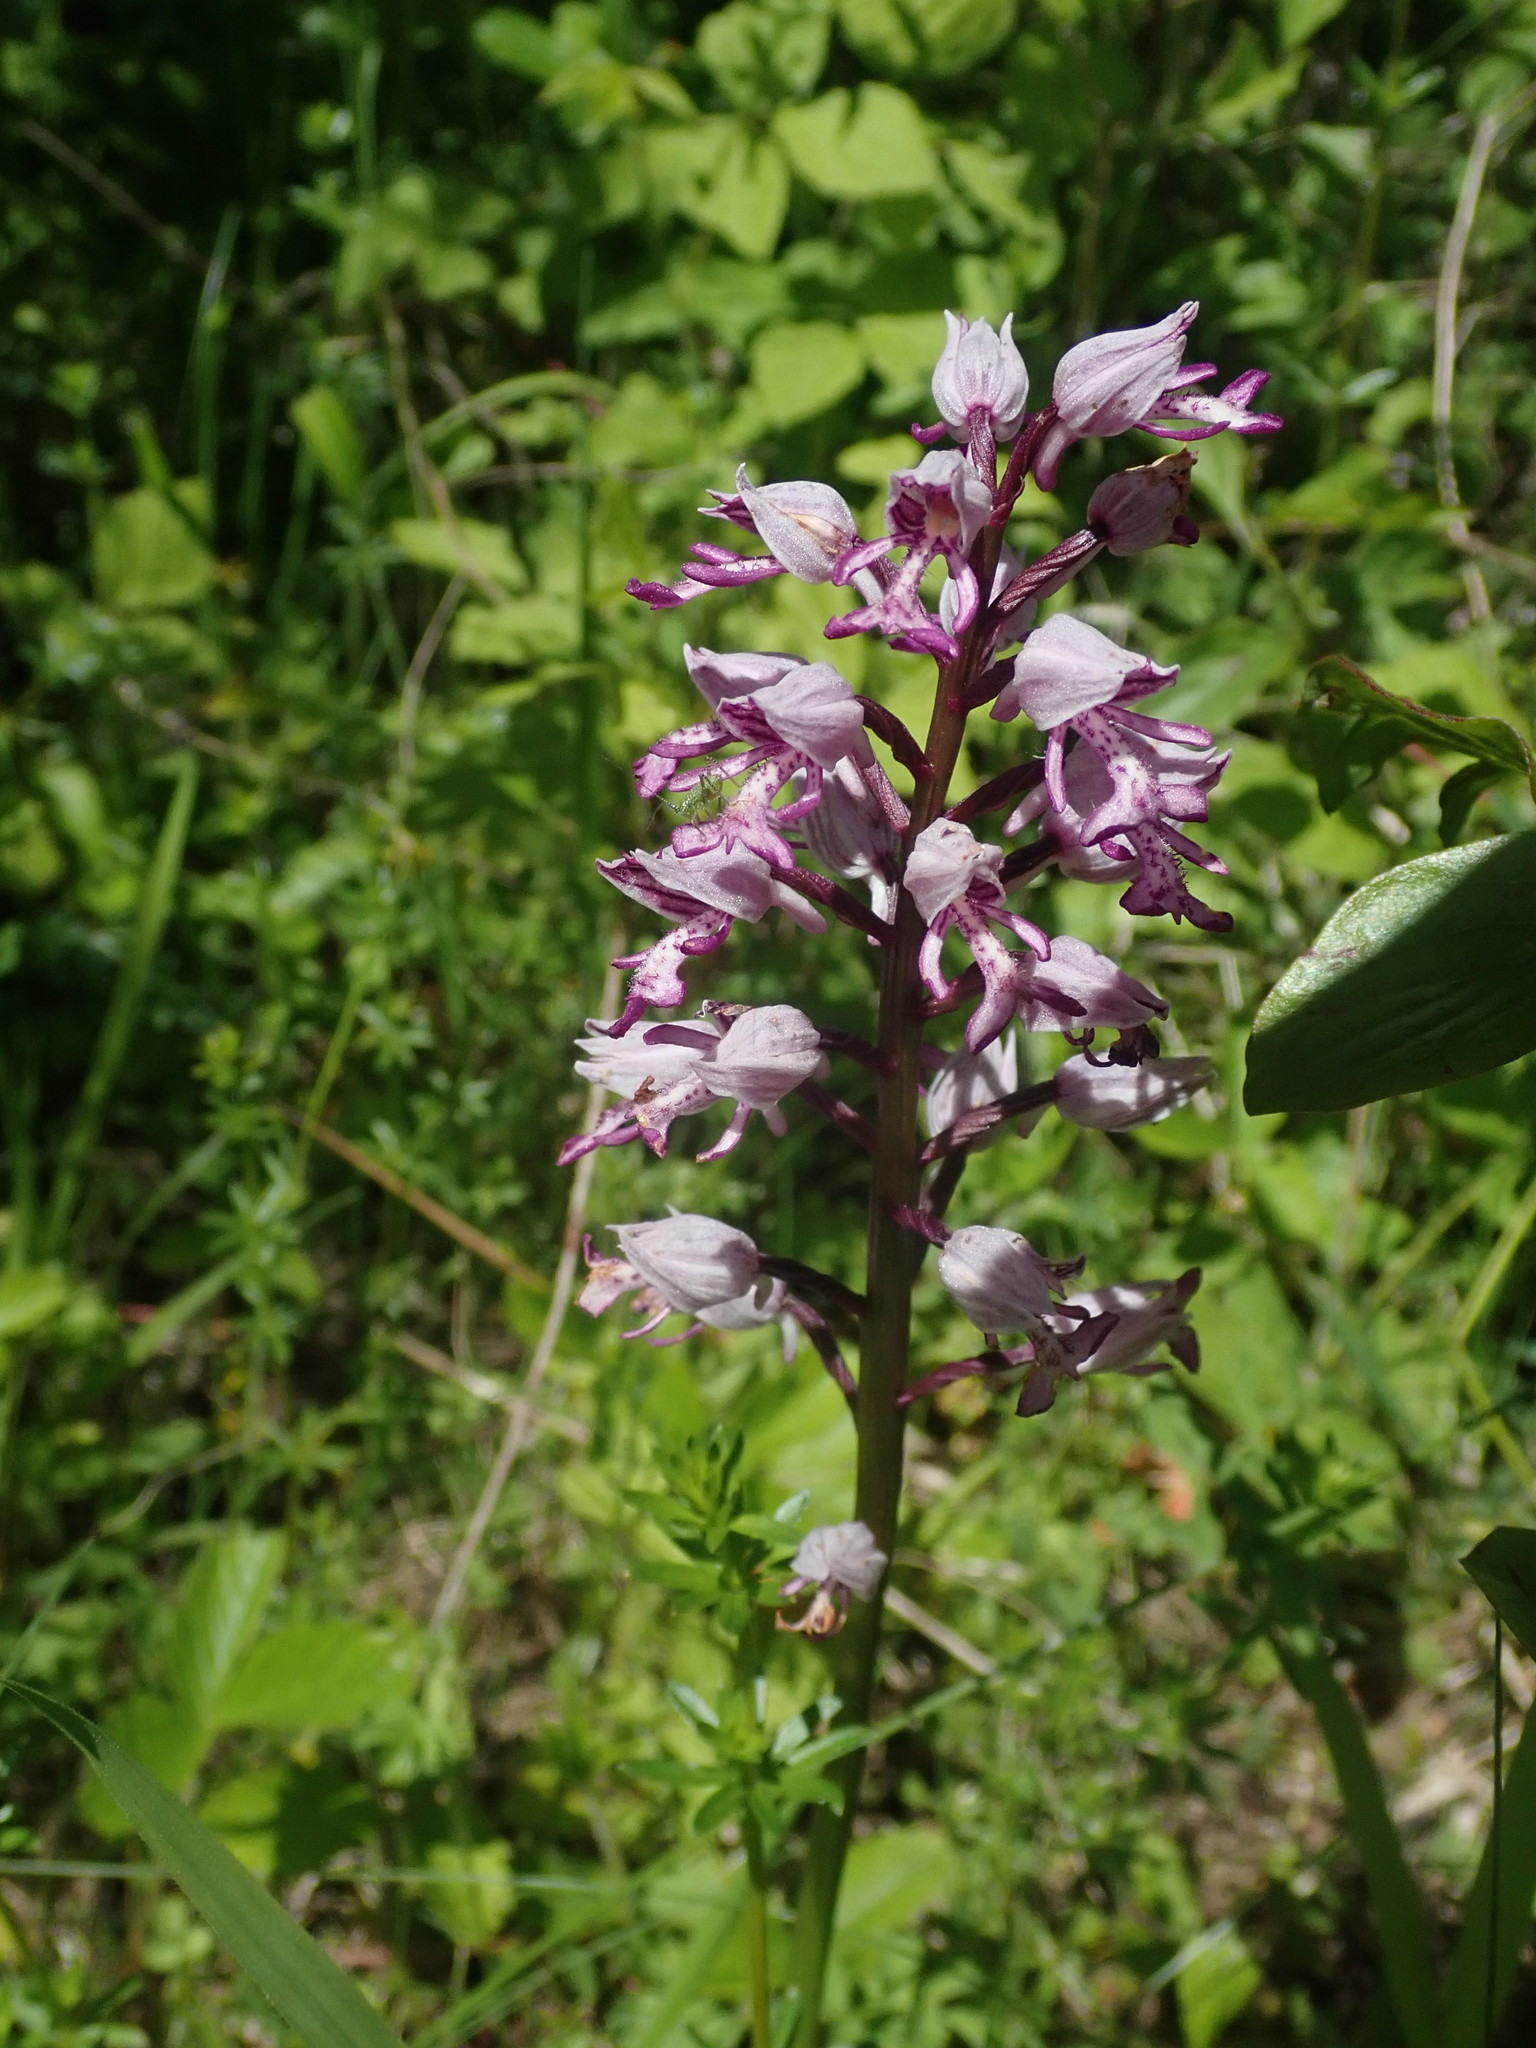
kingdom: Plantae
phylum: Tracheophyta
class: Liliopsida
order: Asparagales
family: Orchidaceae
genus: Orchis
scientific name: Orchis militaris
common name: Military orchid
